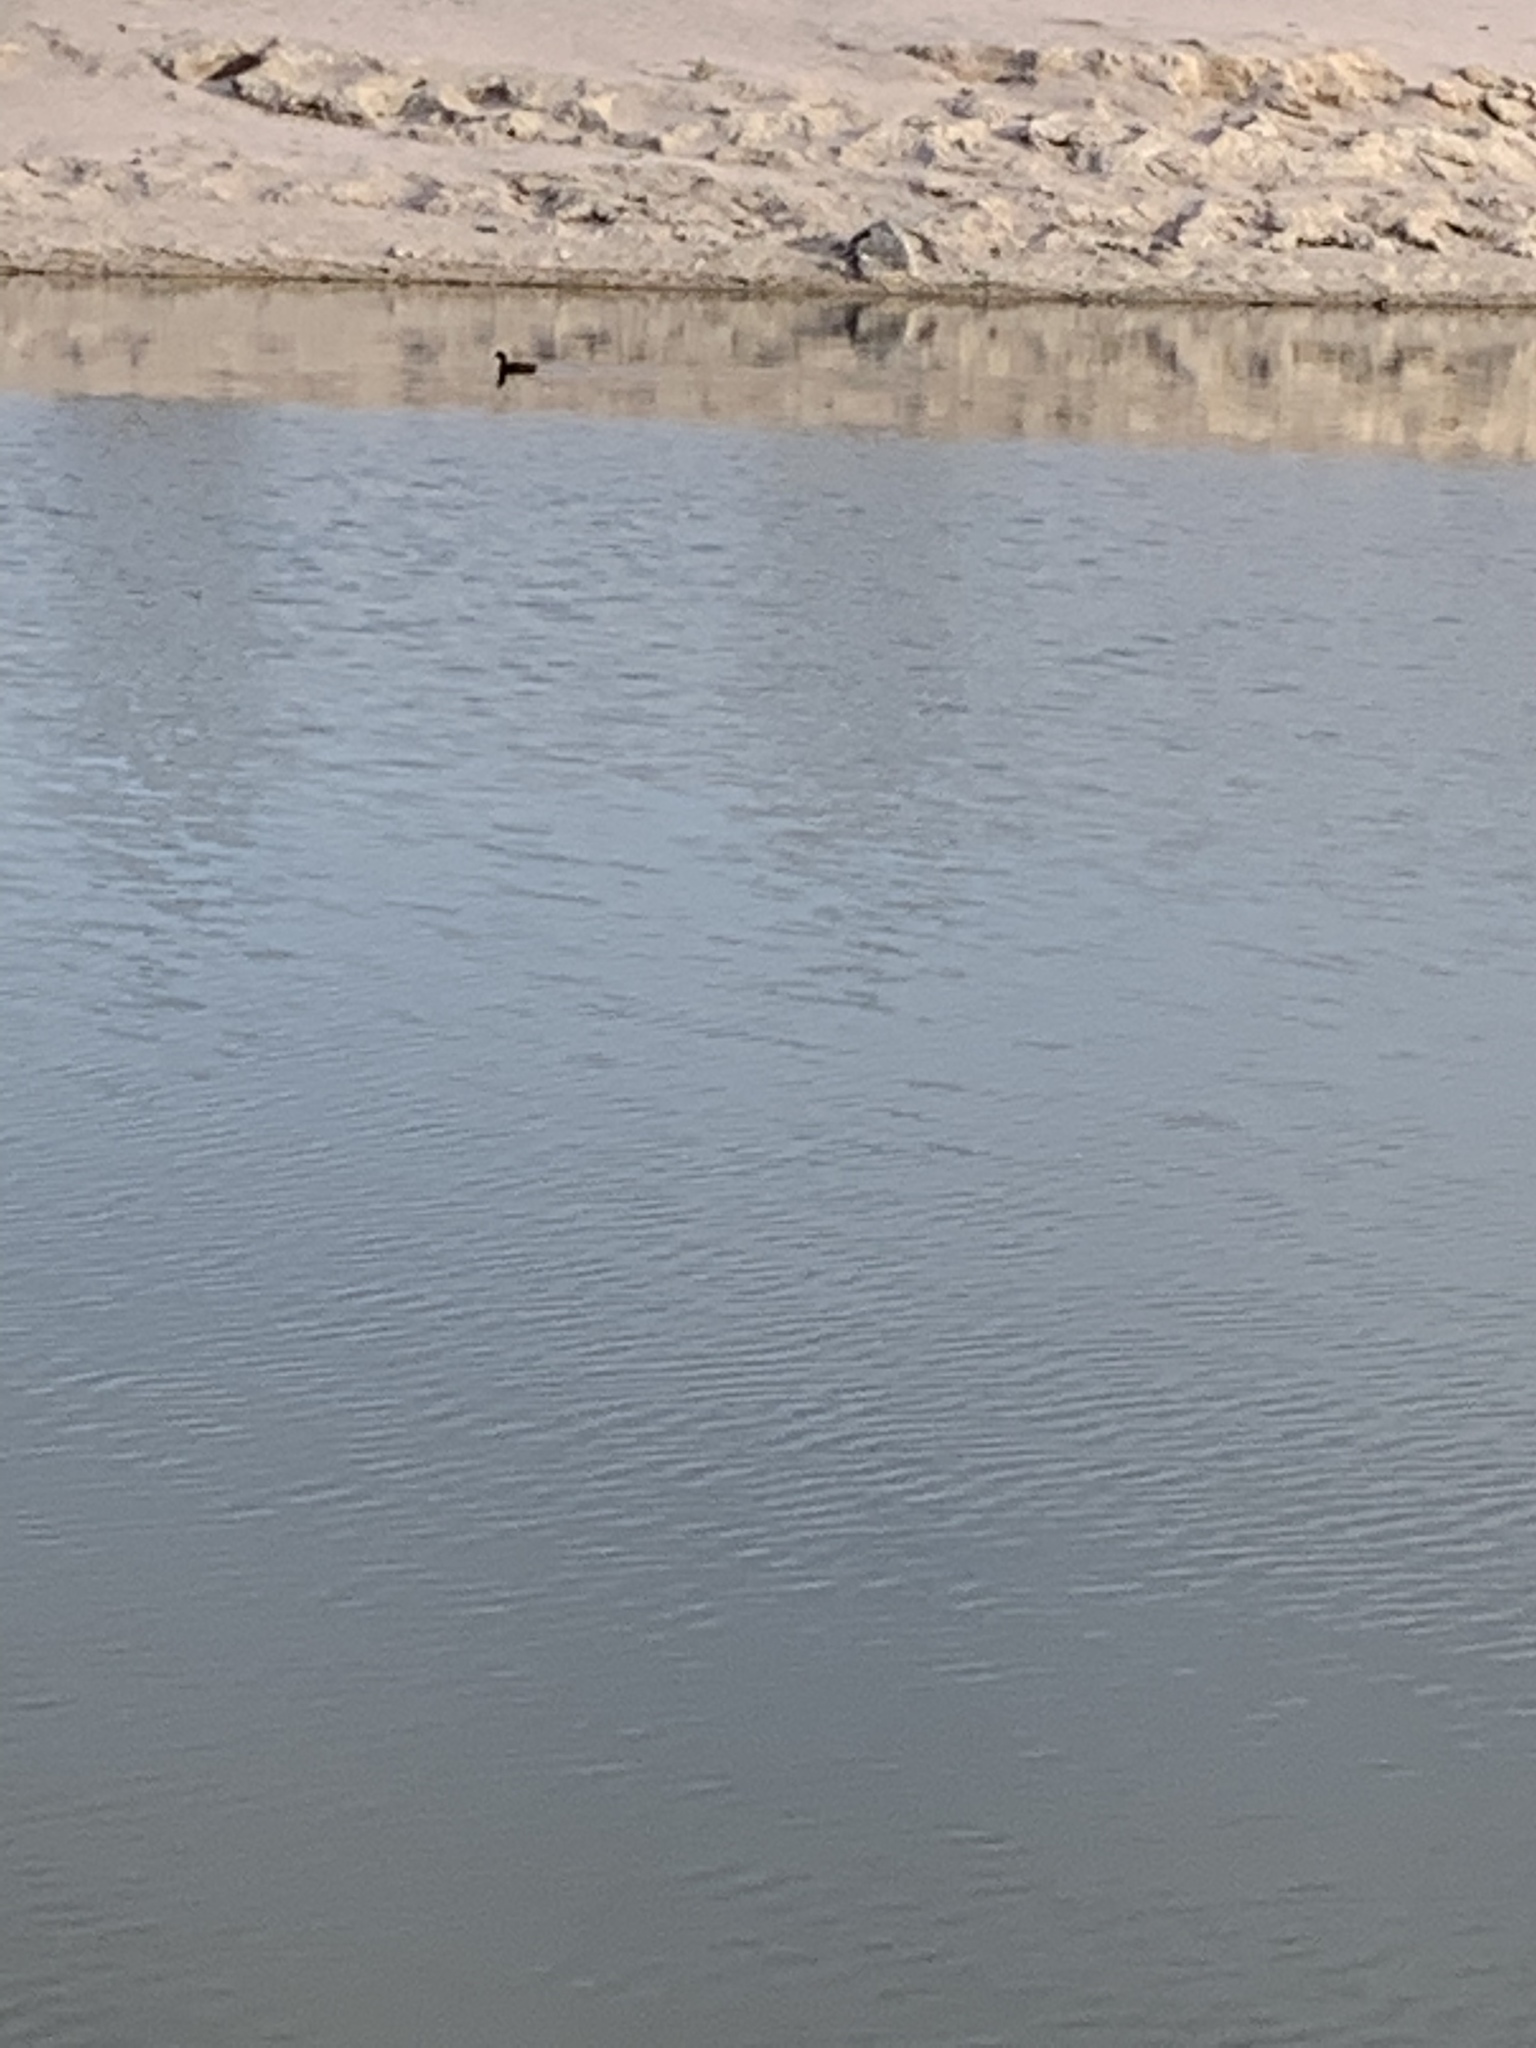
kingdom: Animalia
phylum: Chordata
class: Aves
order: Gruiformes
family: Rallidae
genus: Fulica
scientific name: Fulica americana
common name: American coot
